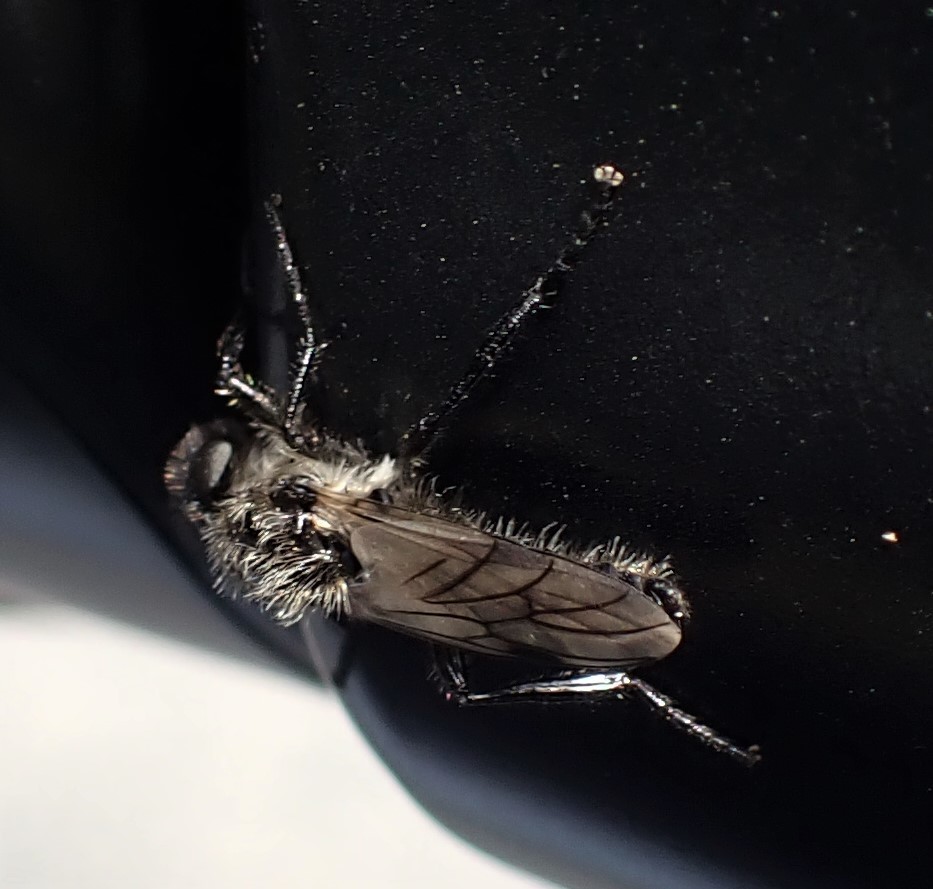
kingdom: Animalia
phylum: Arthropoda
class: Insecta
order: Diptera
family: Bibionidae
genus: Bibio
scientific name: Bibio albipennis
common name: White-winged march fly
